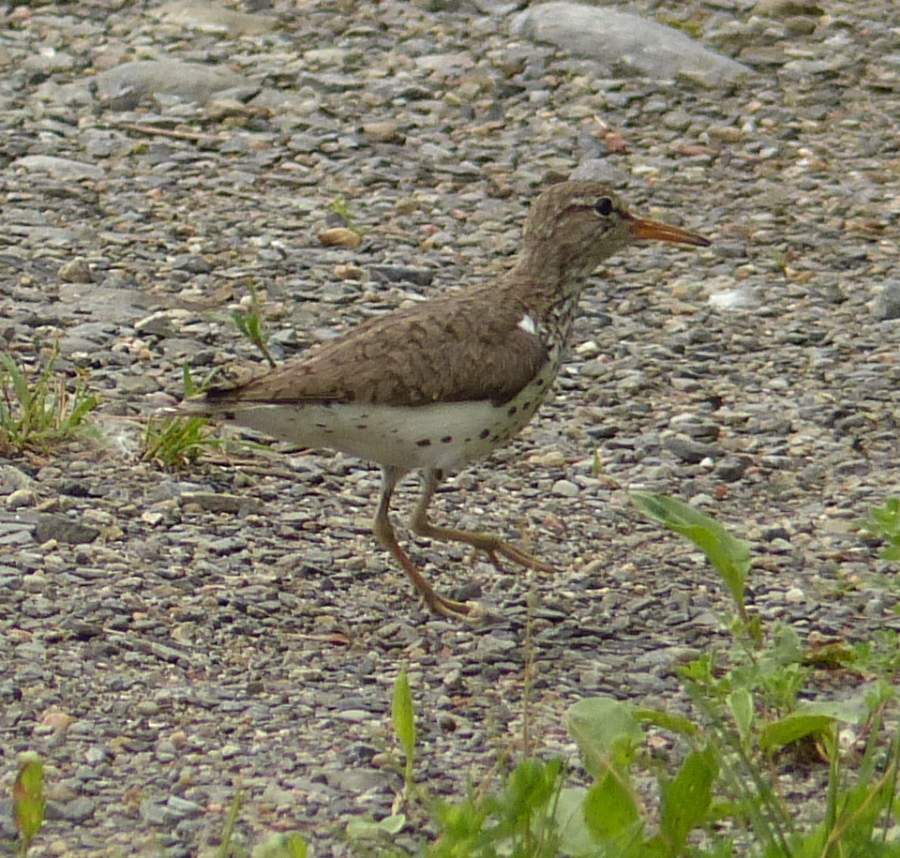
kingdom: Animalia
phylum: Chordata
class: Aves
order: Charadriiformes
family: Scolopacidae
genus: Actitis
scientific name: Actitis macularius
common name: Spotted sandpiper
